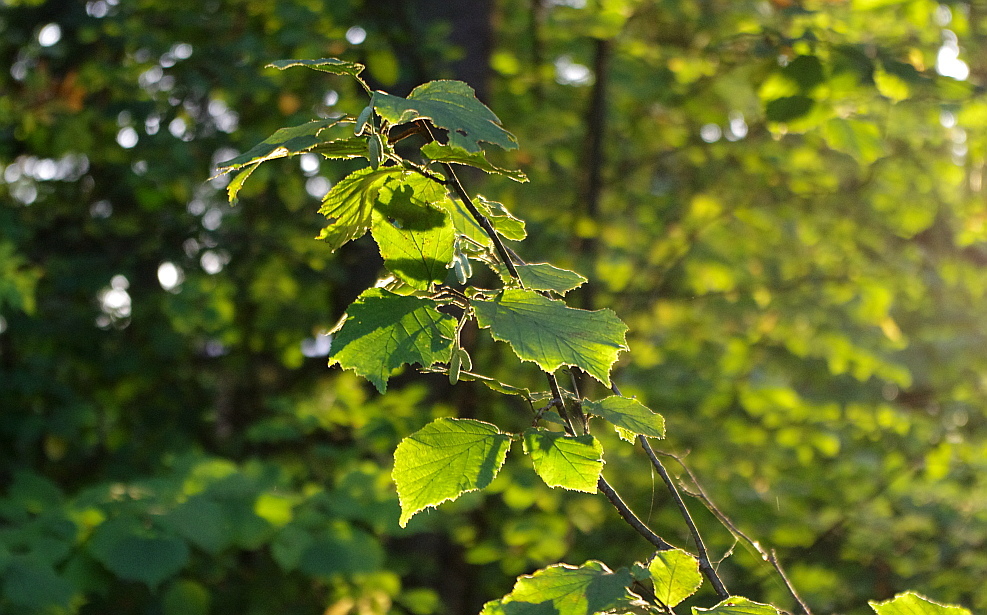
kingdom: Plantae
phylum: Tracheophyta
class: Magnoliopsida
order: Fagales
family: Betulaceae
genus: Corylus
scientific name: Corylus avellana
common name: European hazel
